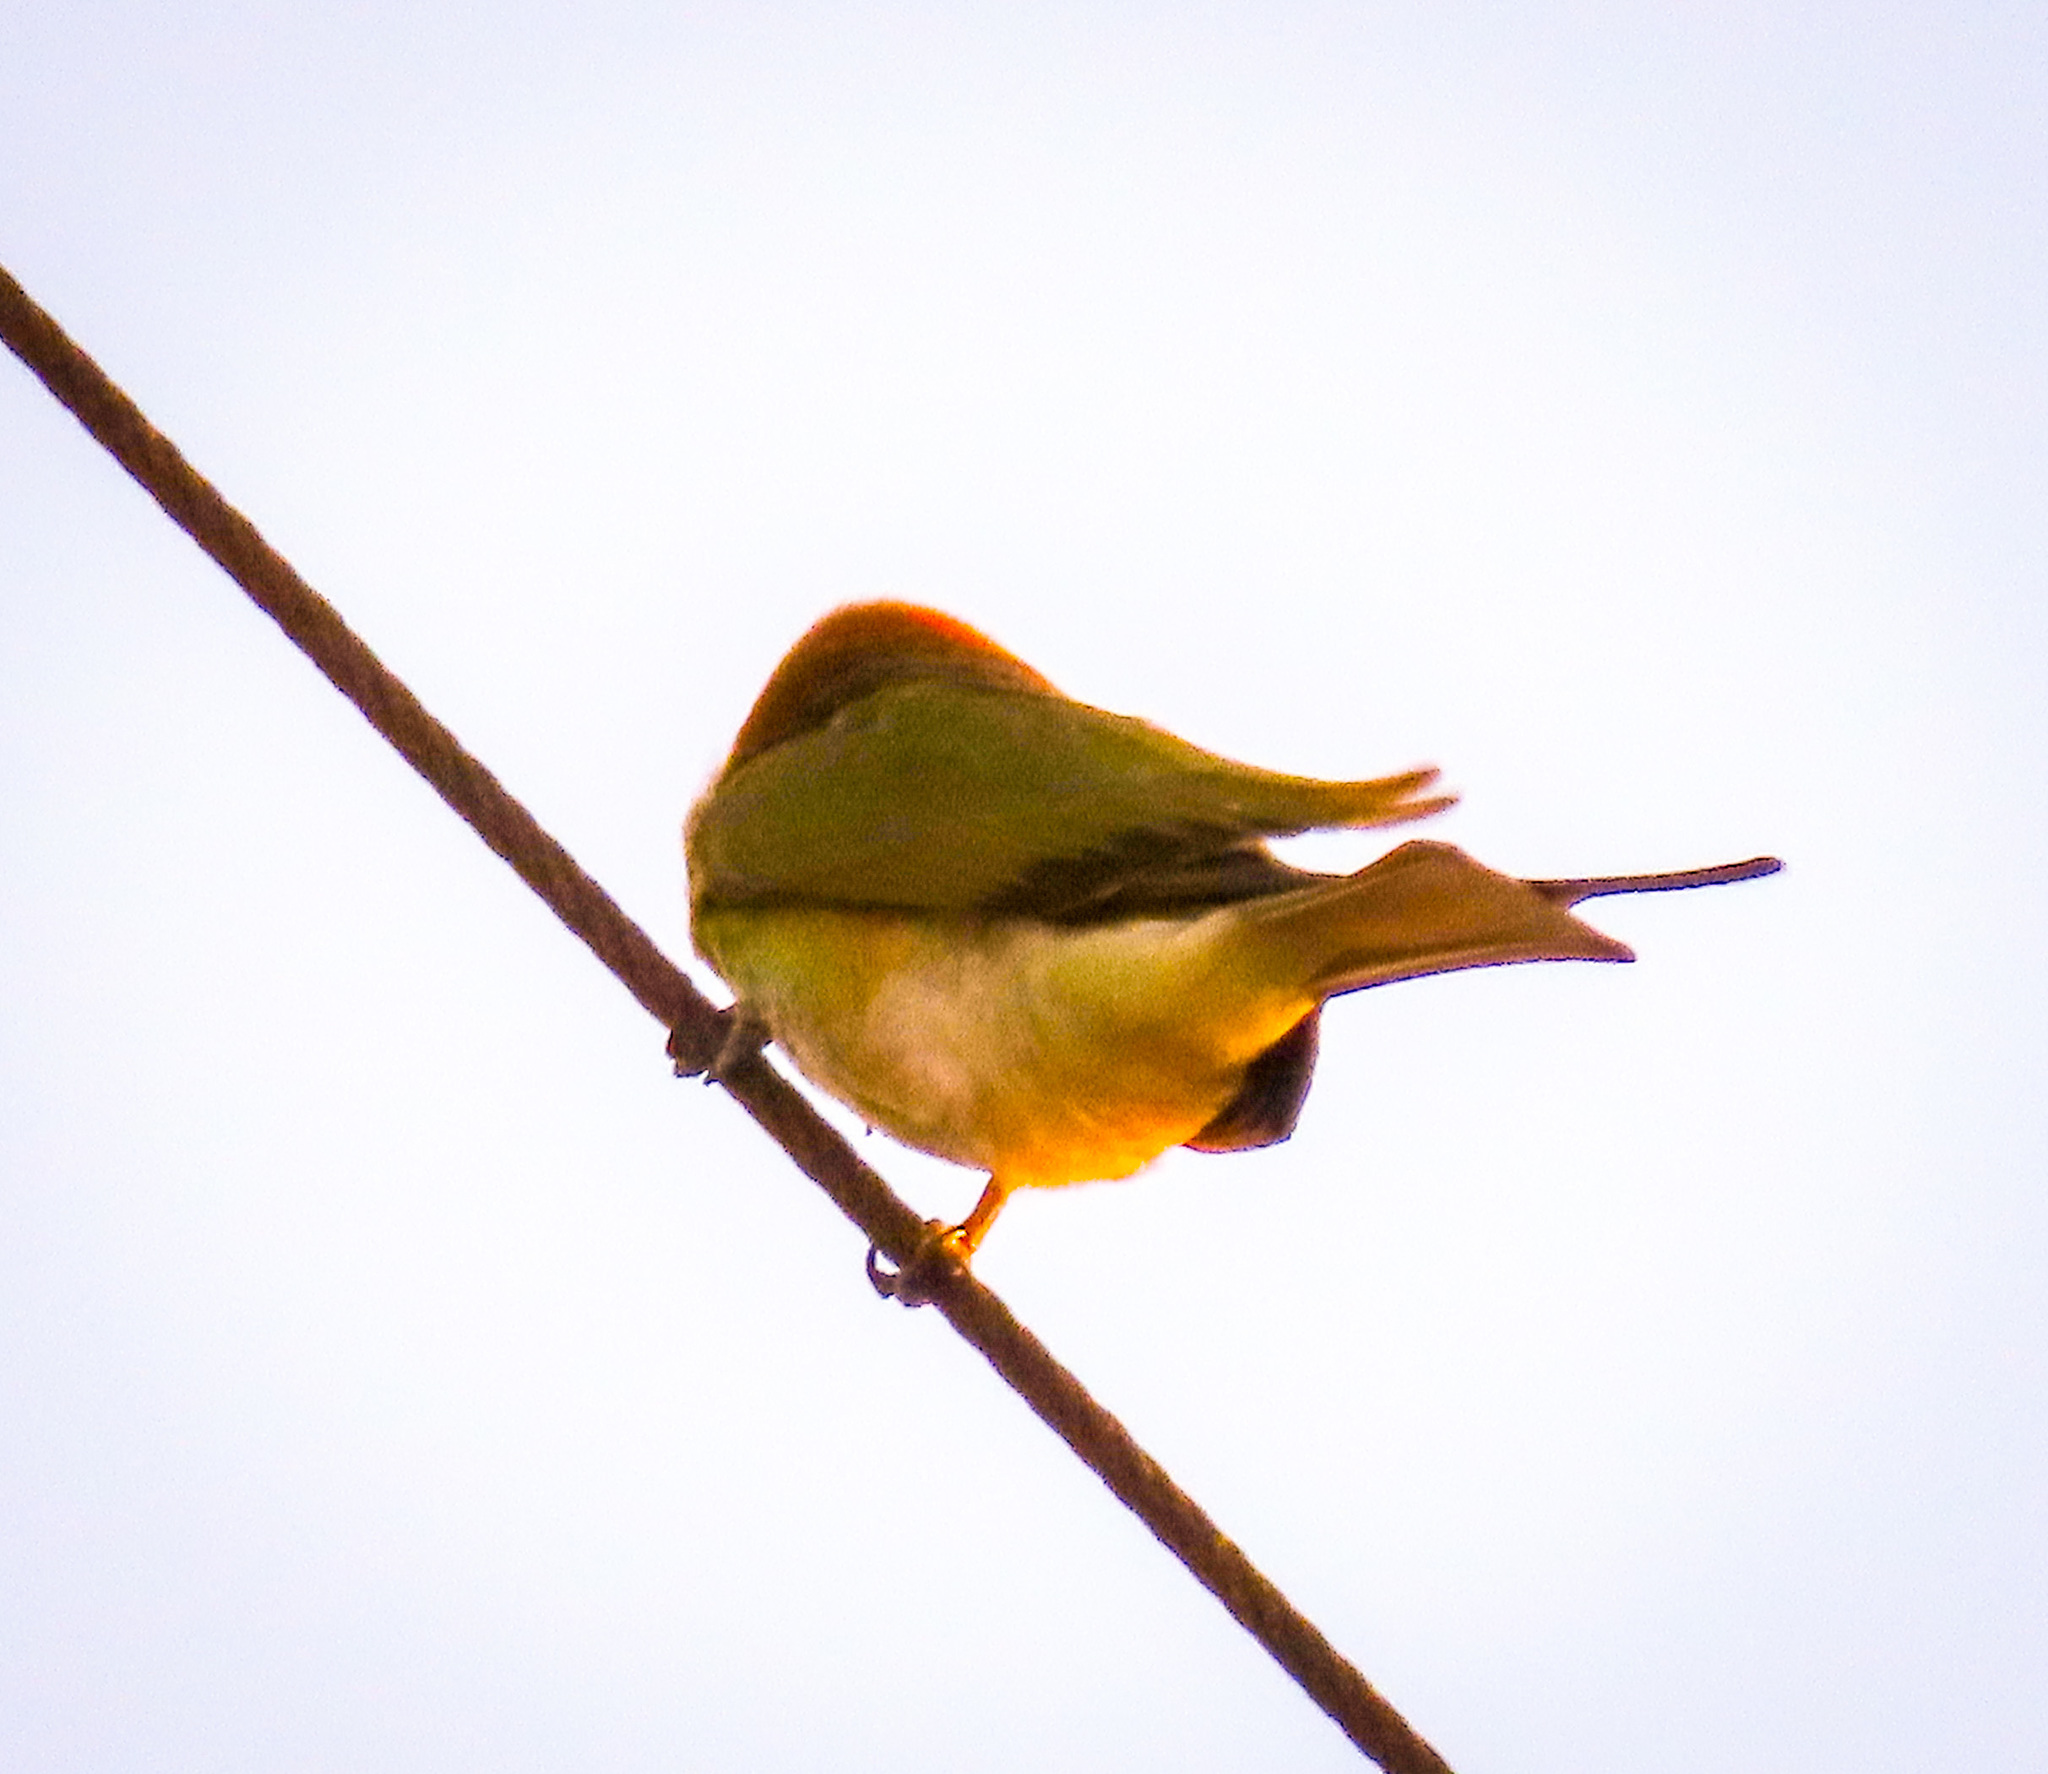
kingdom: Animalia
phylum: Chordata
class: Aves
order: Coraciiformes
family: Meropidae
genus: Merops
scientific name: Merops orientalis
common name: Green bee-eater
